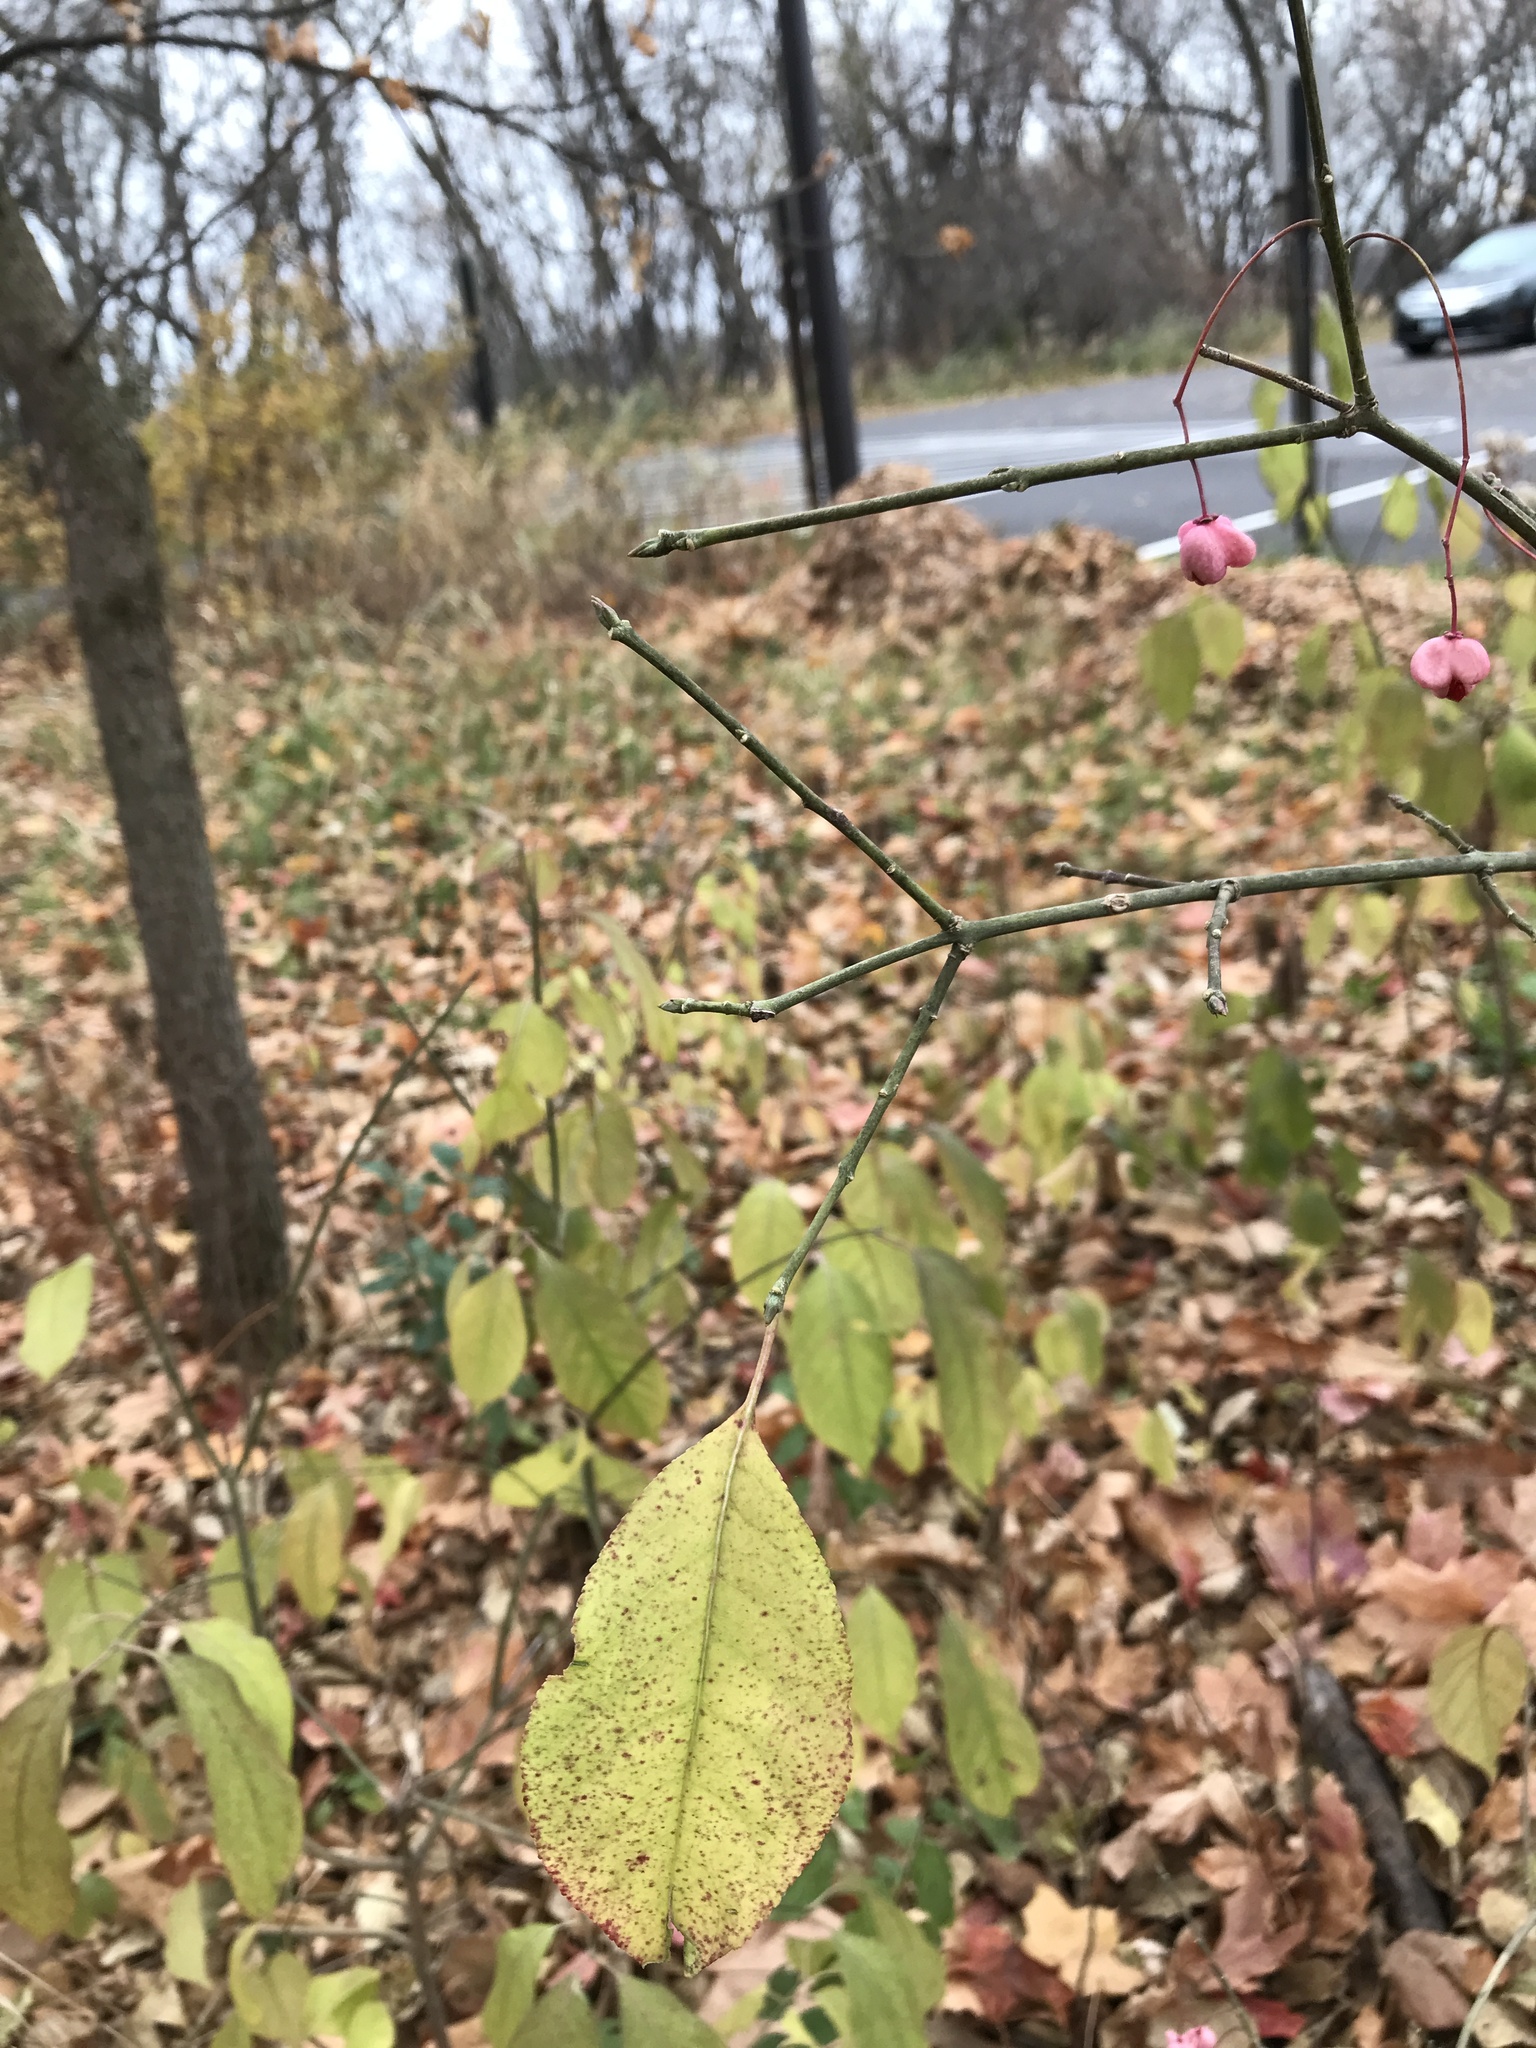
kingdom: Plantae
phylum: Tracheophyta
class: Magnoliopsida
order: Celastrales
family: Celastraceae
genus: Euonymus
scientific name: Euonymus atropurpureus
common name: Eastern wahoo
